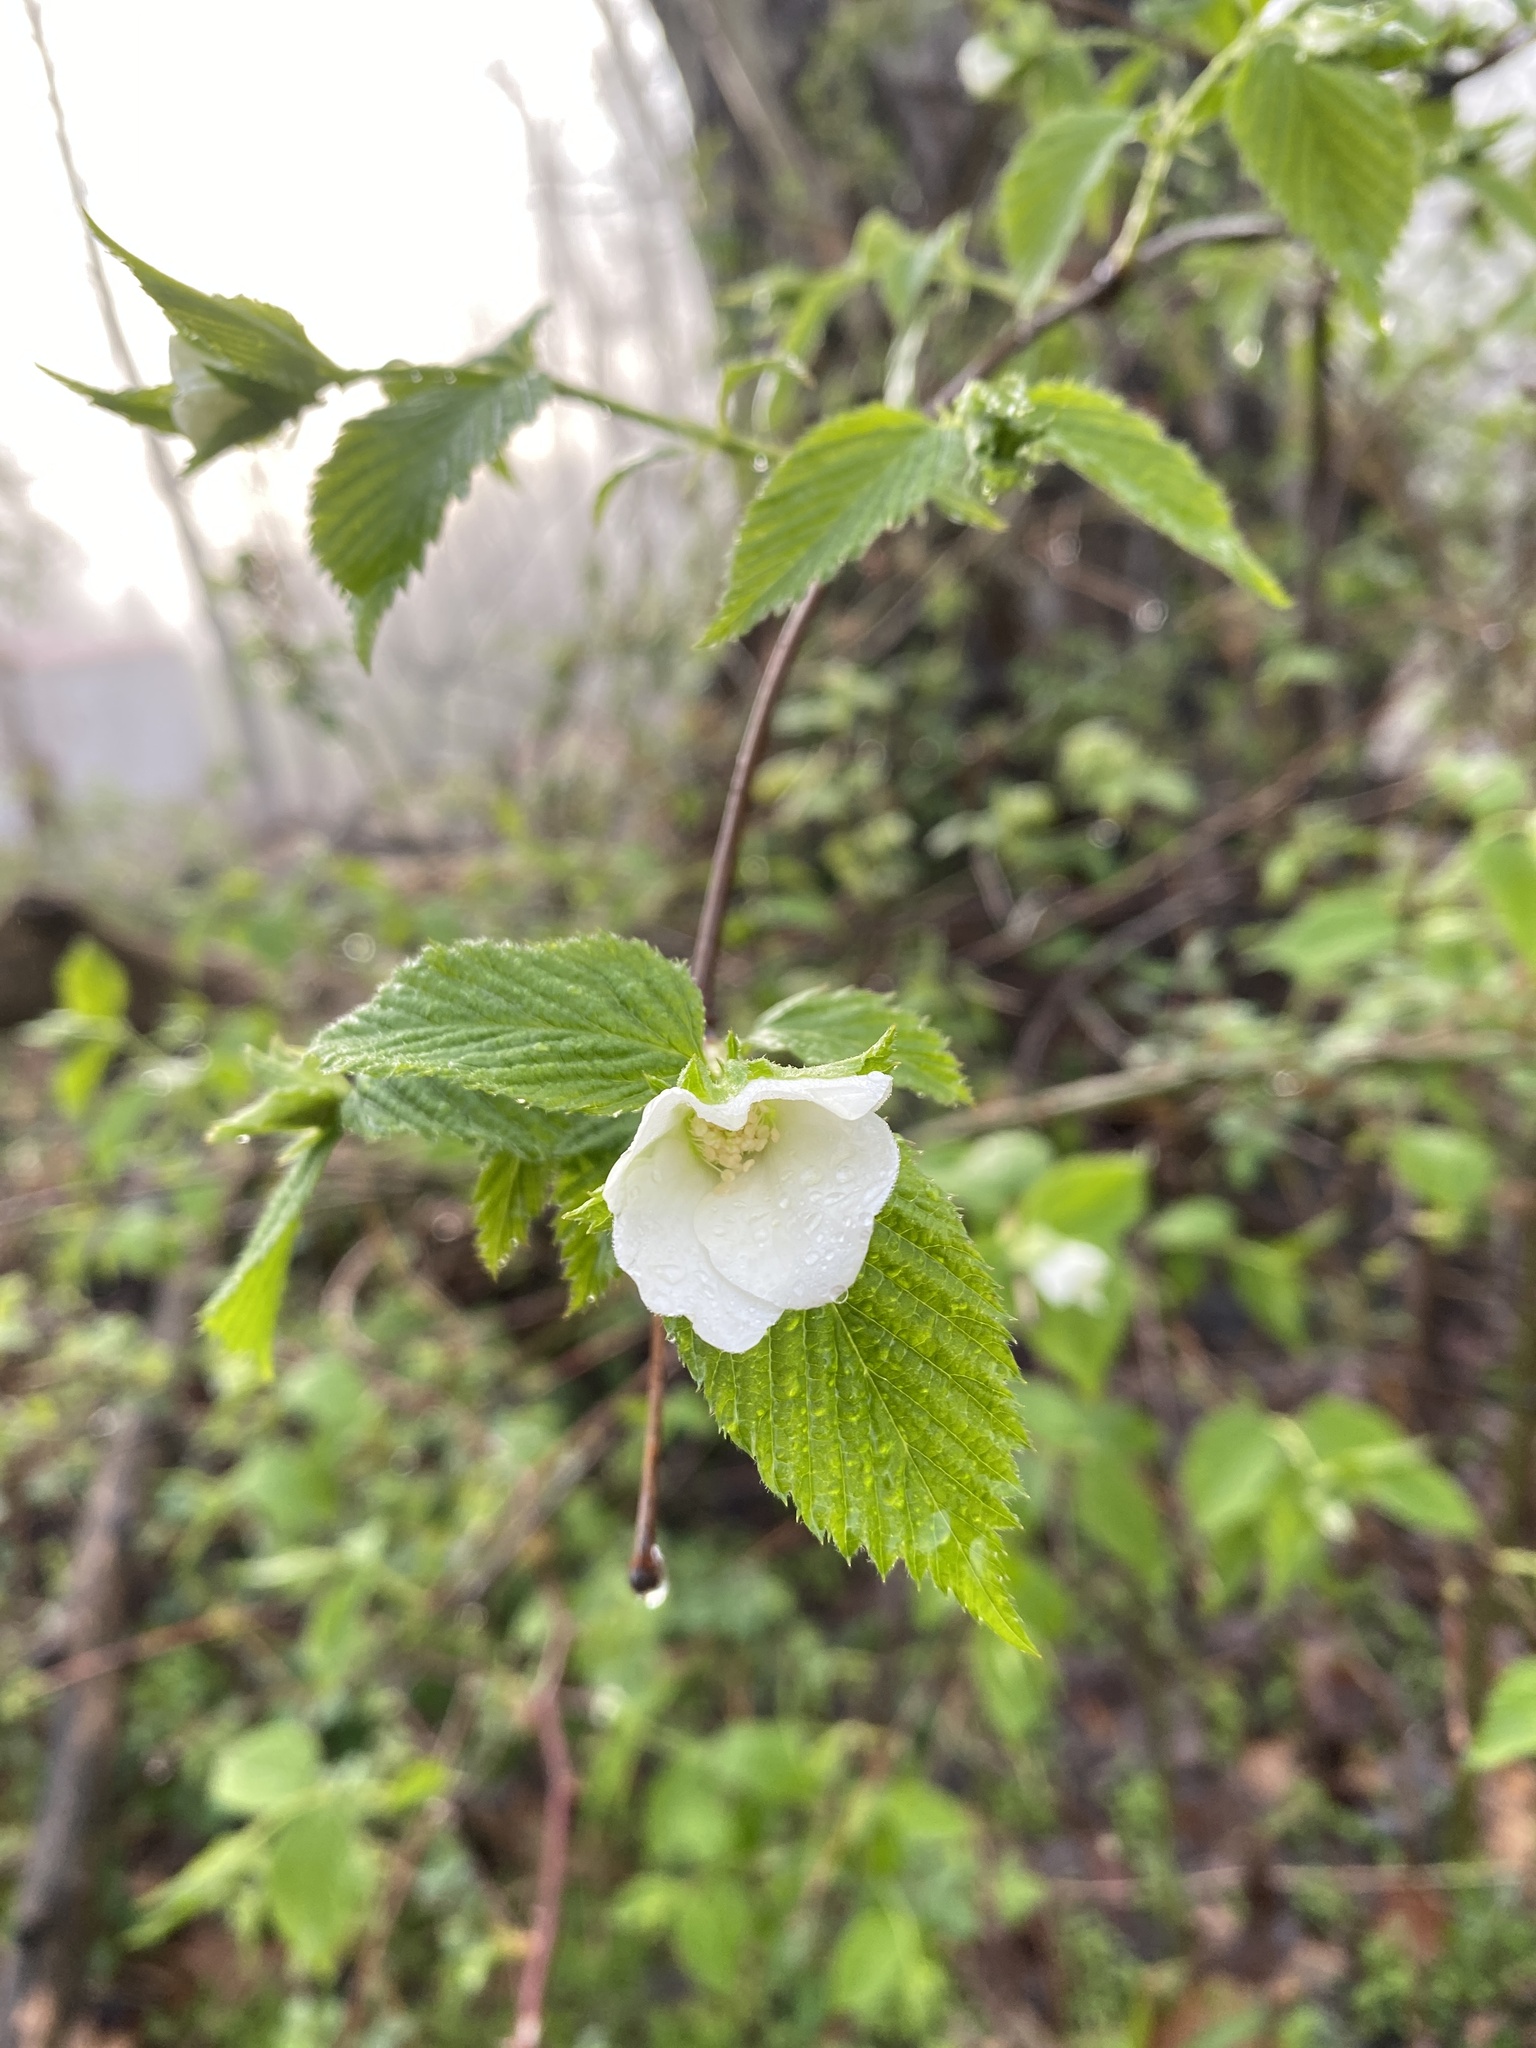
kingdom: Plantae
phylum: Tracheophyta
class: Magnoliopsida
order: Rosales
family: Rosaceae
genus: Rhodotypos
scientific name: Rhodotypos scandens
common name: Jetbead
